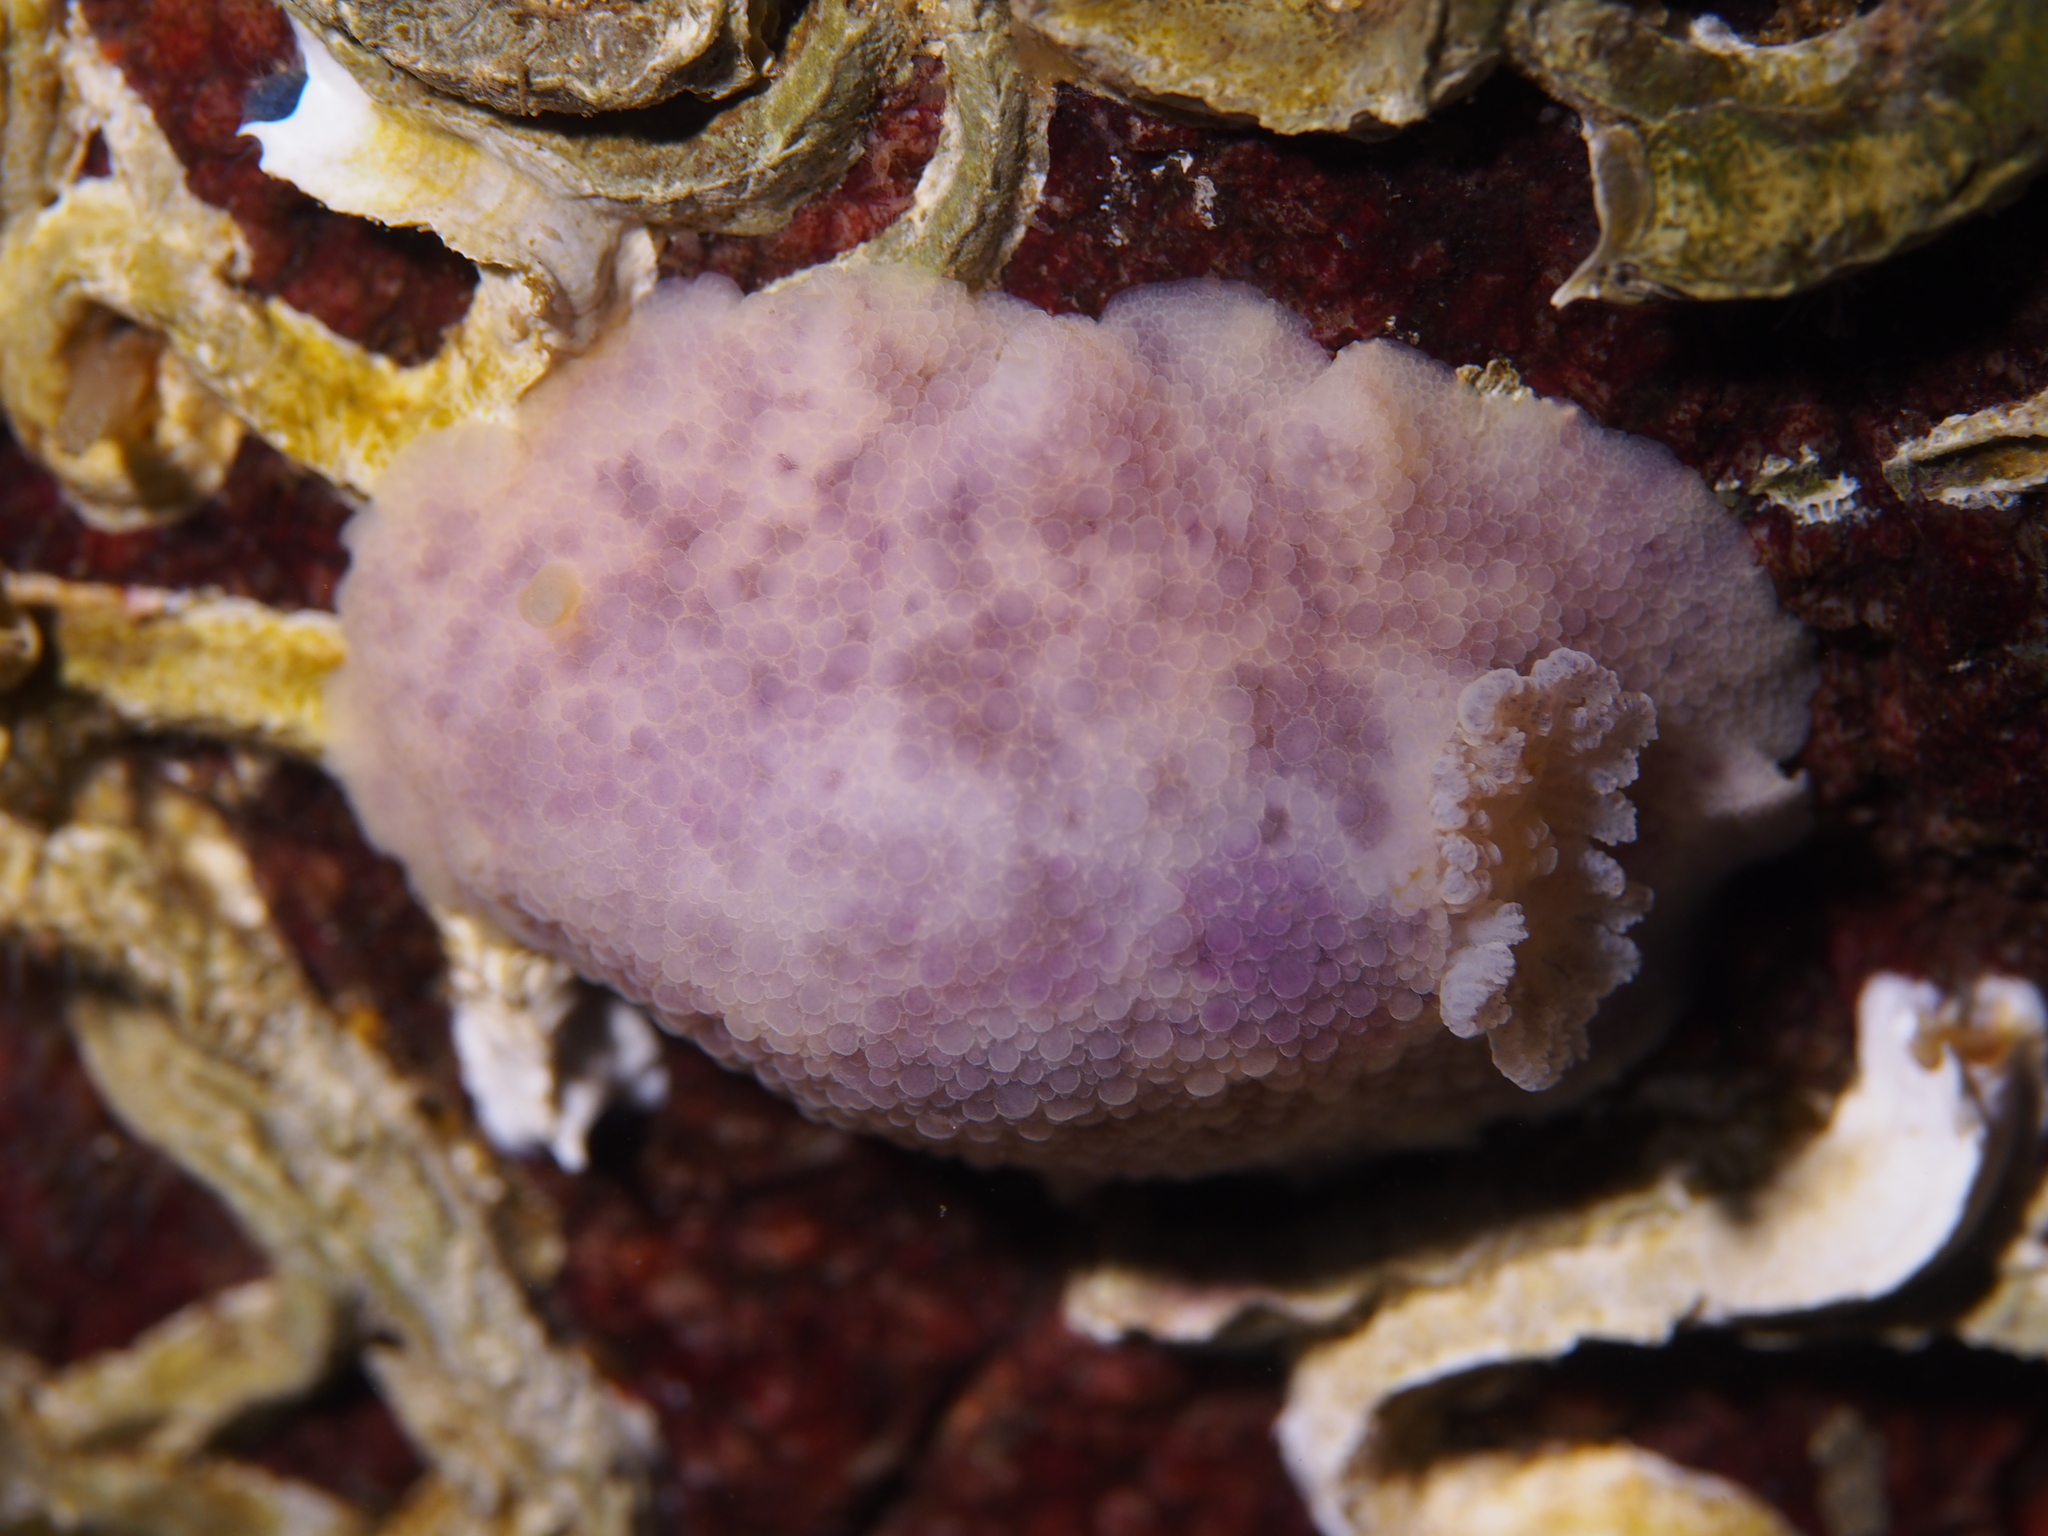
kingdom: Animalia
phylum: Mollusca
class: Gastropoda
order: Nudibranchia
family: Dorididae
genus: Doris
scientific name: Doris pseudoargus
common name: Sea lemon
